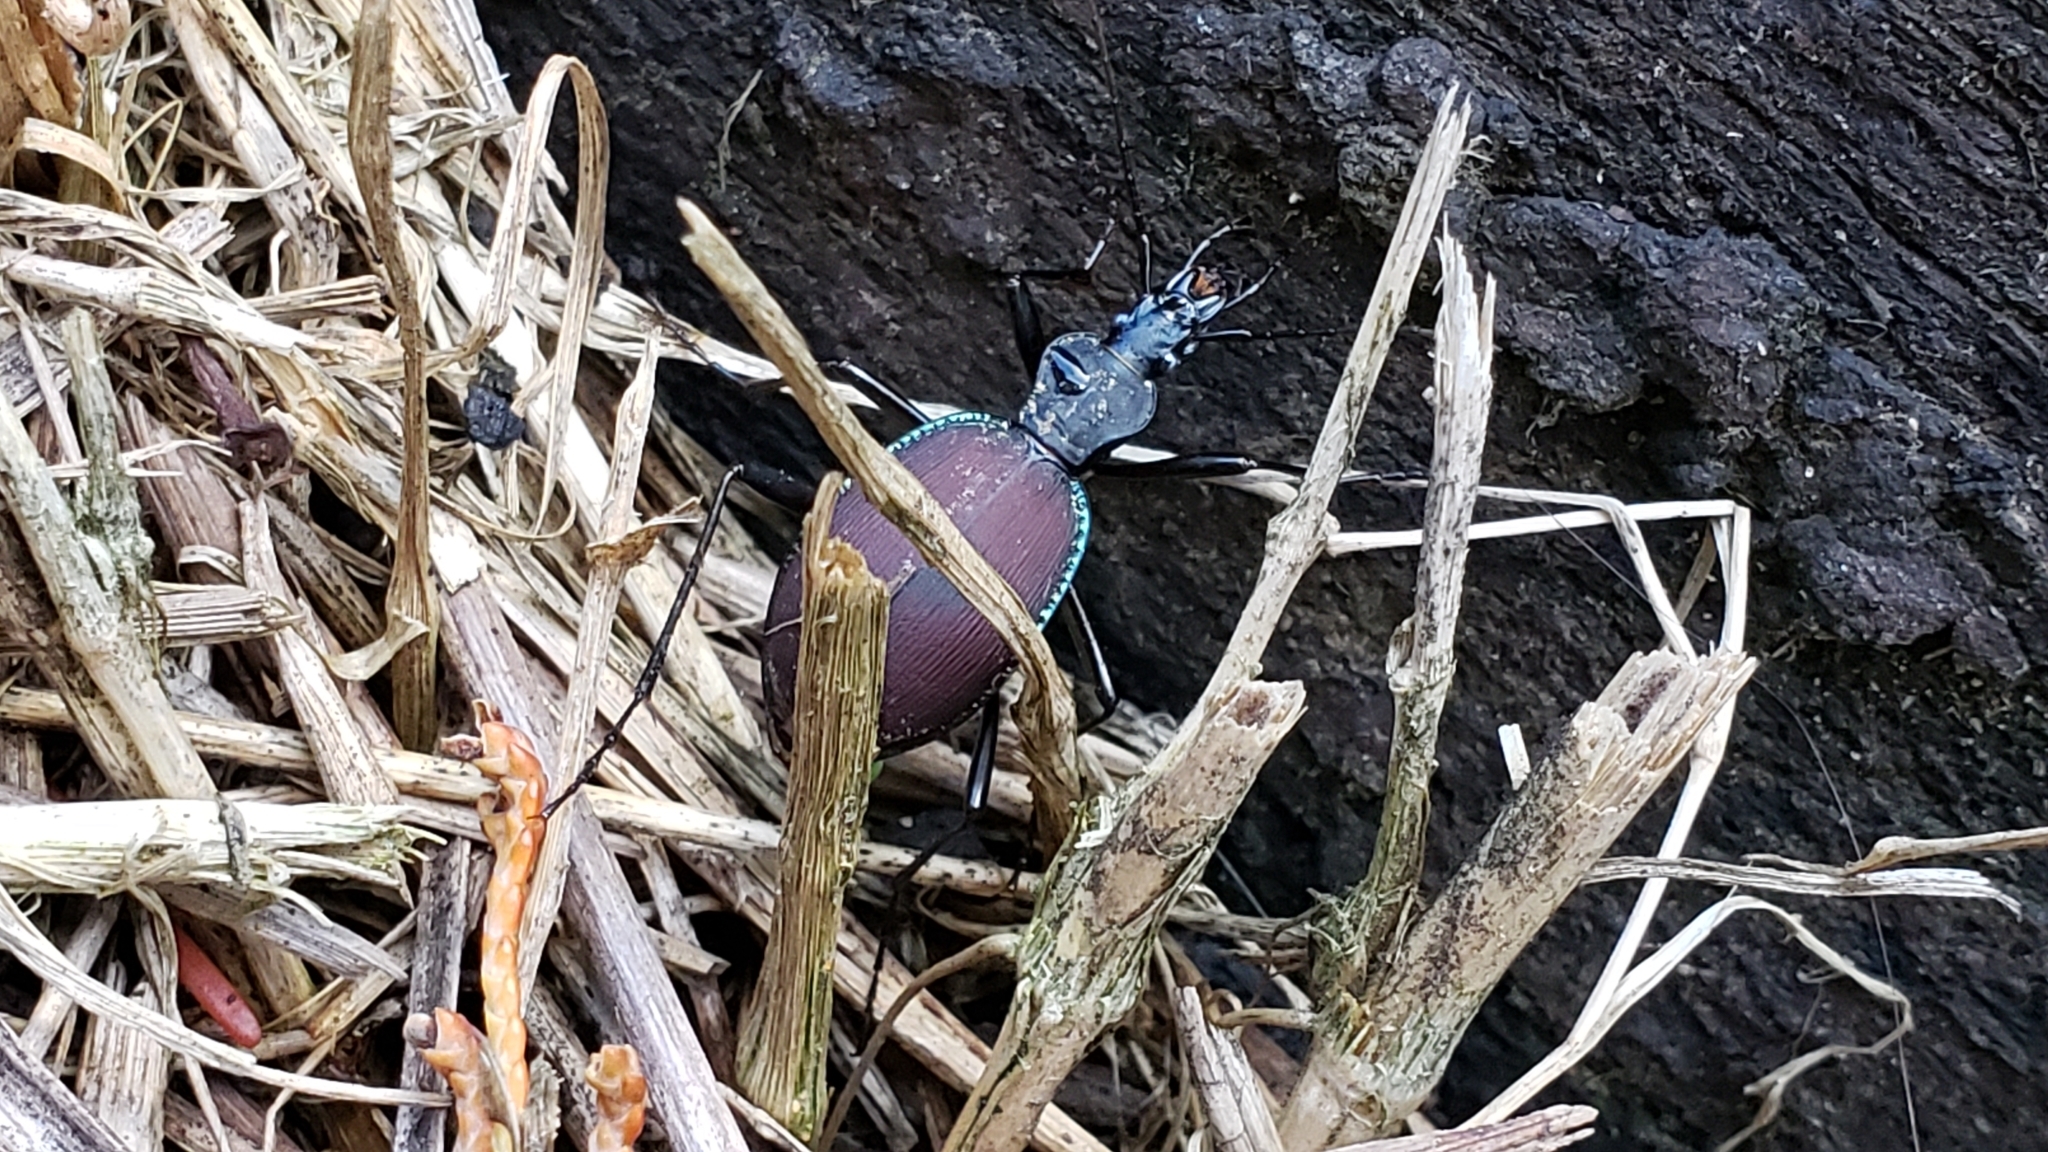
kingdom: Animalia
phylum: Arthropoda
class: Insecta
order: Coleoptera
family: Carabidae
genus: Scaphinotus
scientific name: Scaphinotus angusticollis
